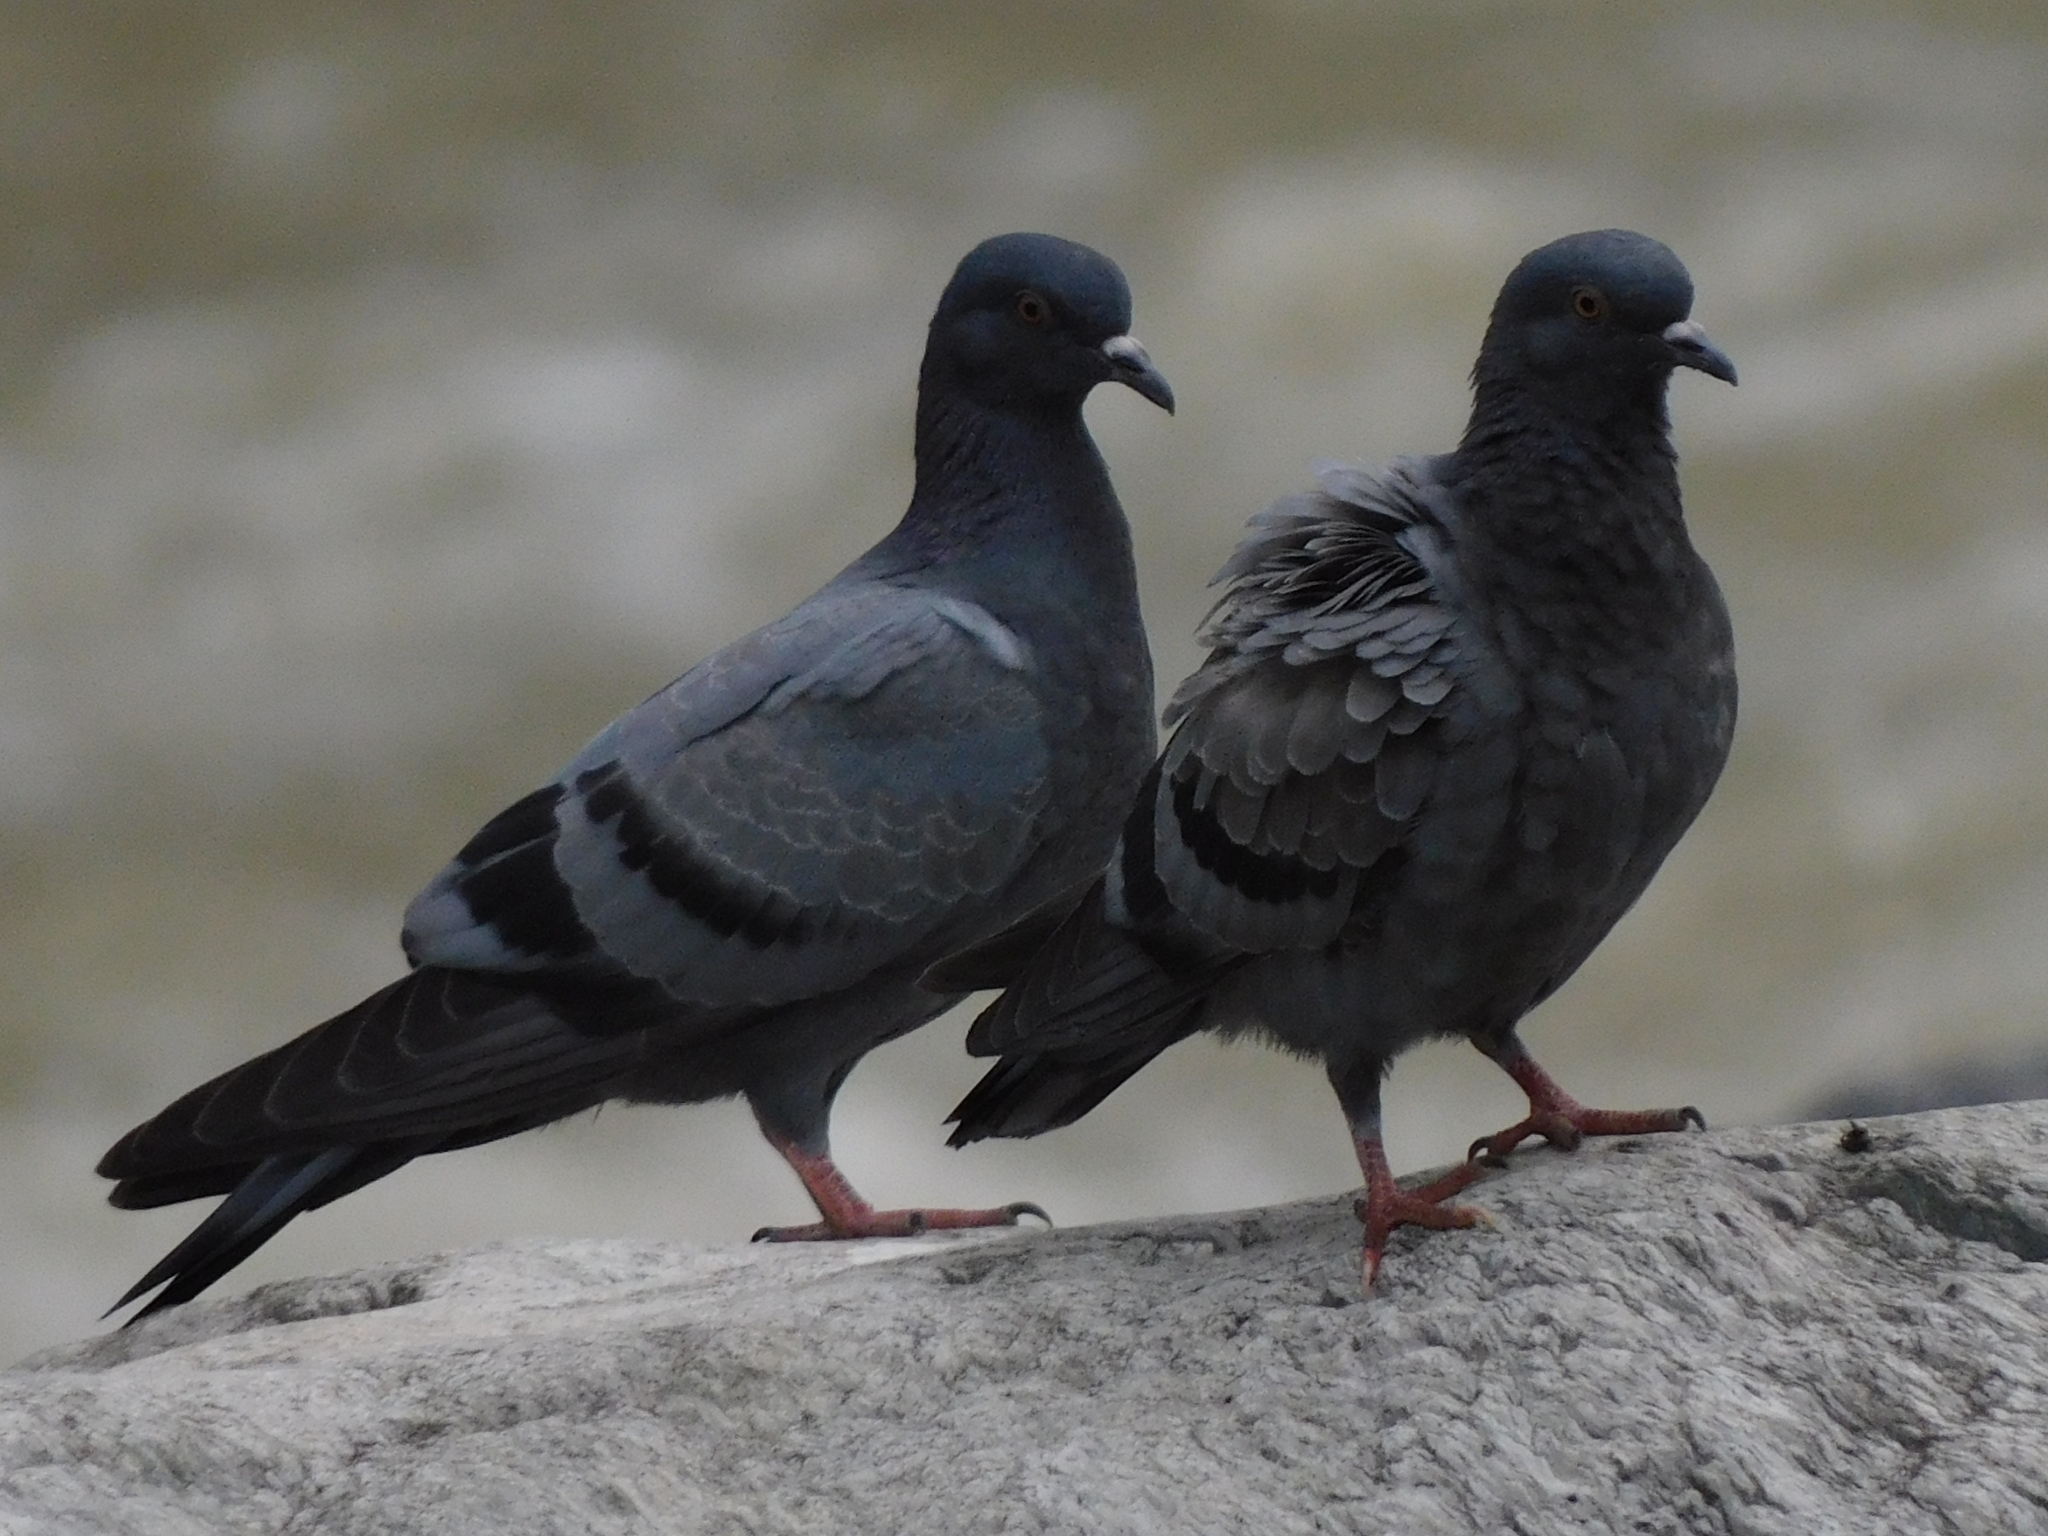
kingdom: Animalia
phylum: Chordata
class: Aves
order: Columbiformes
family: Columbidae
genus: Columba
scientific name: Columba livia
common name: Rock pigeon
